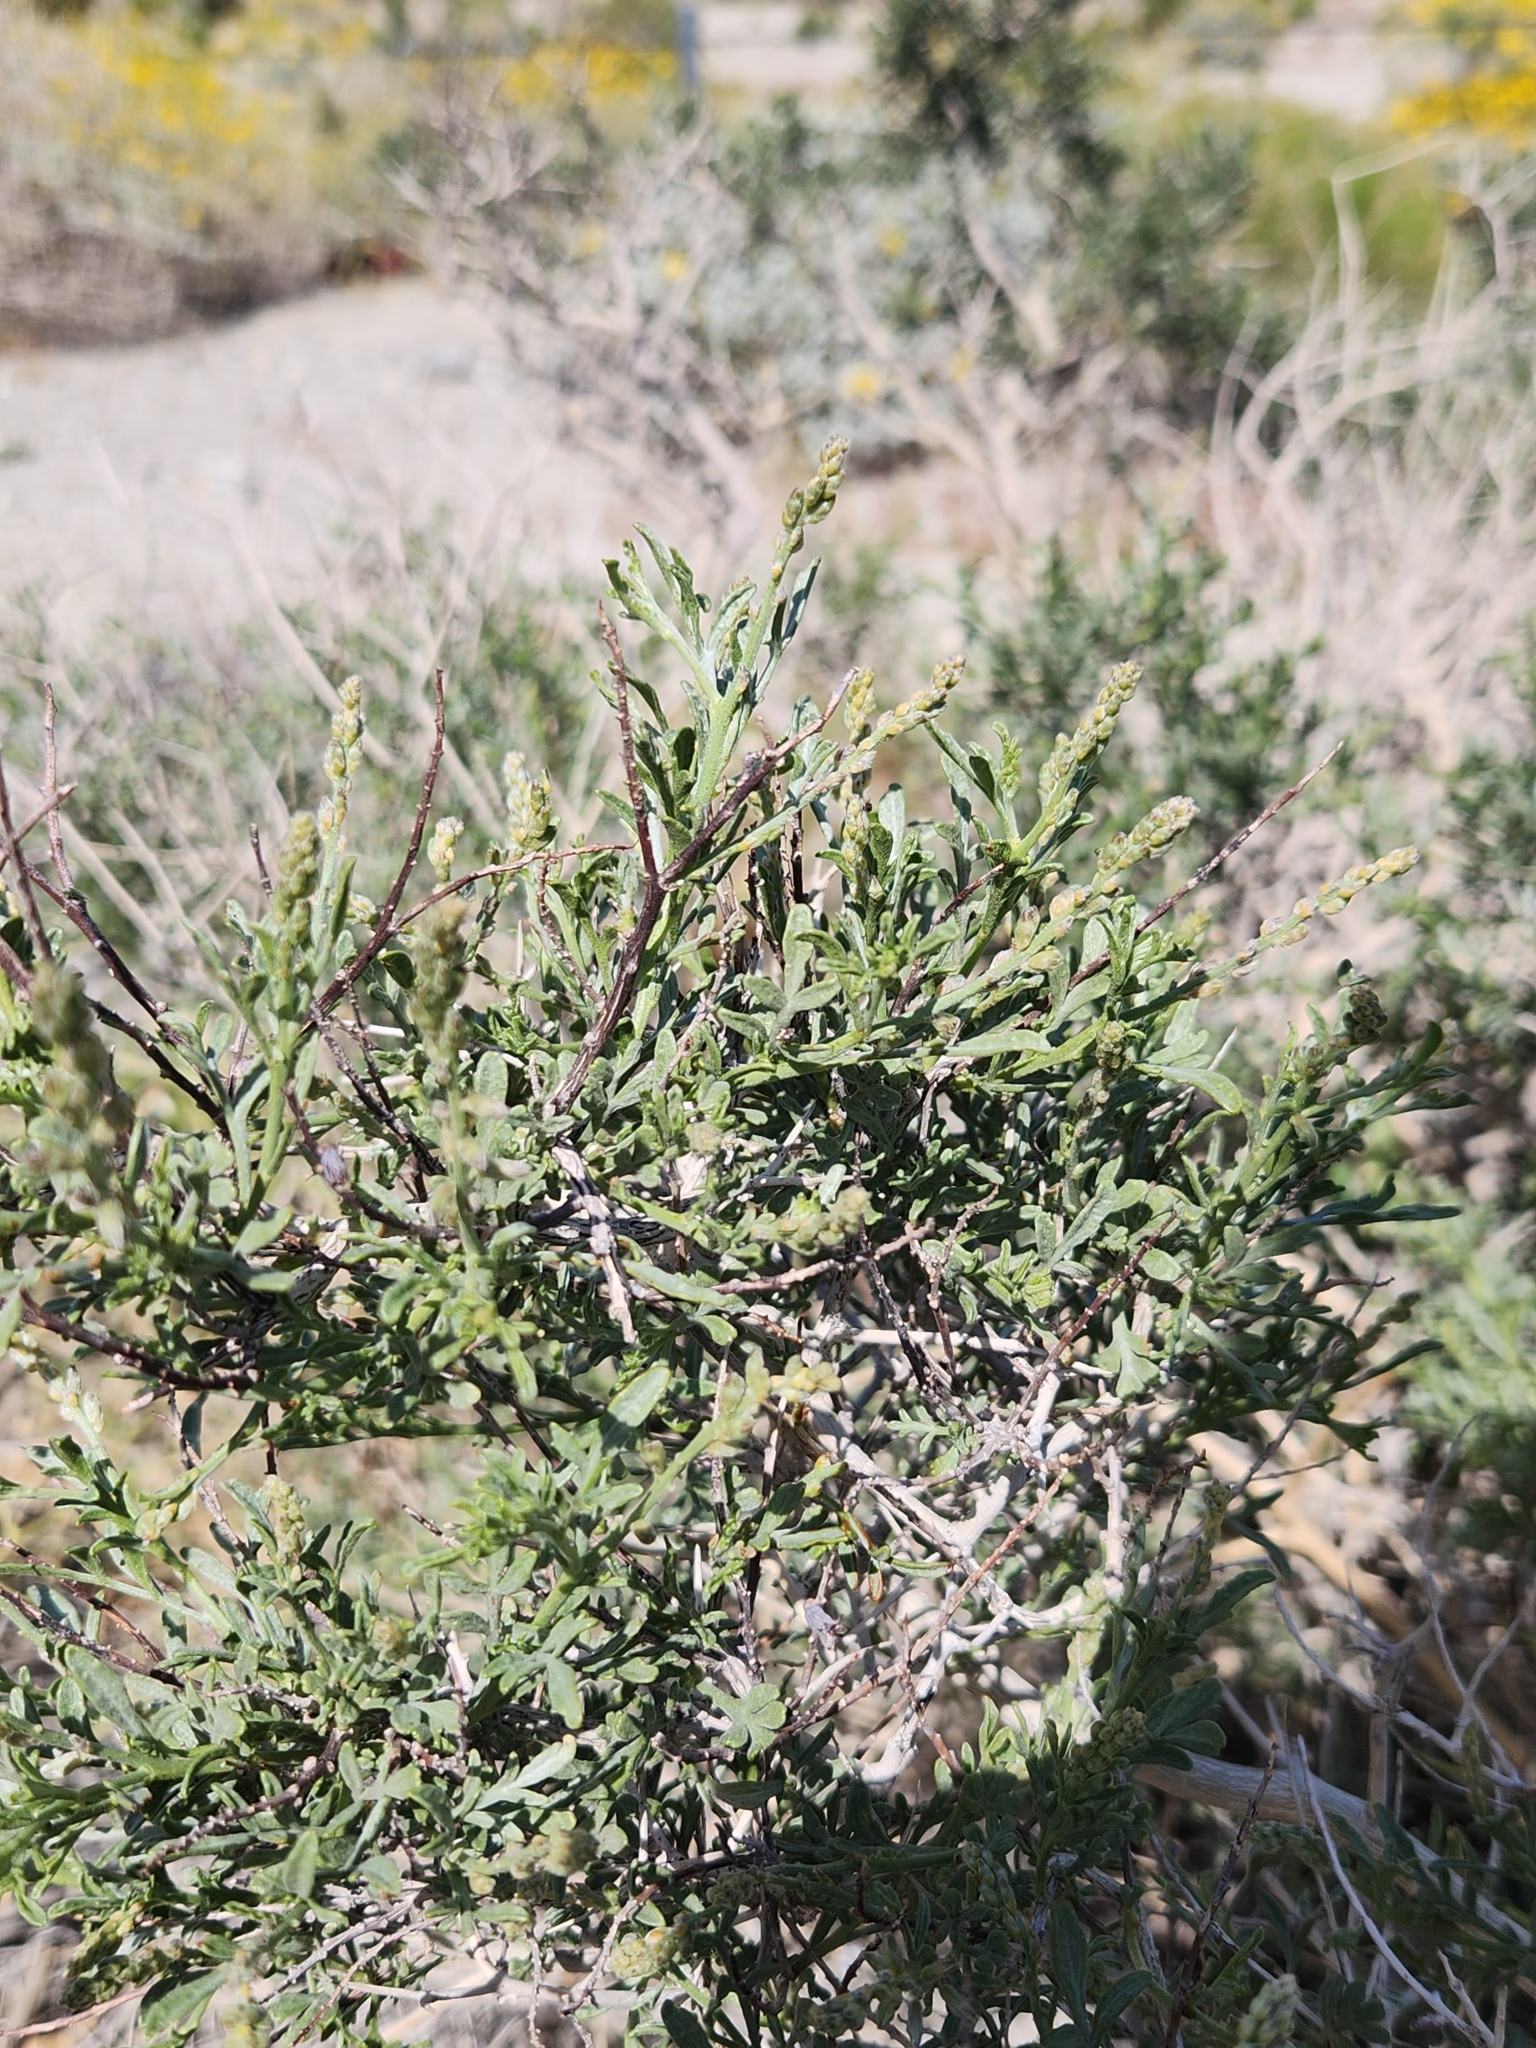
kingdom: Plantae
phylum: Tracheophyta
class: Magnoliopsida
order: Fabales
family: Fabaceae
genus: Psorothamnus
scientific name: Psorothamnus arborescens
